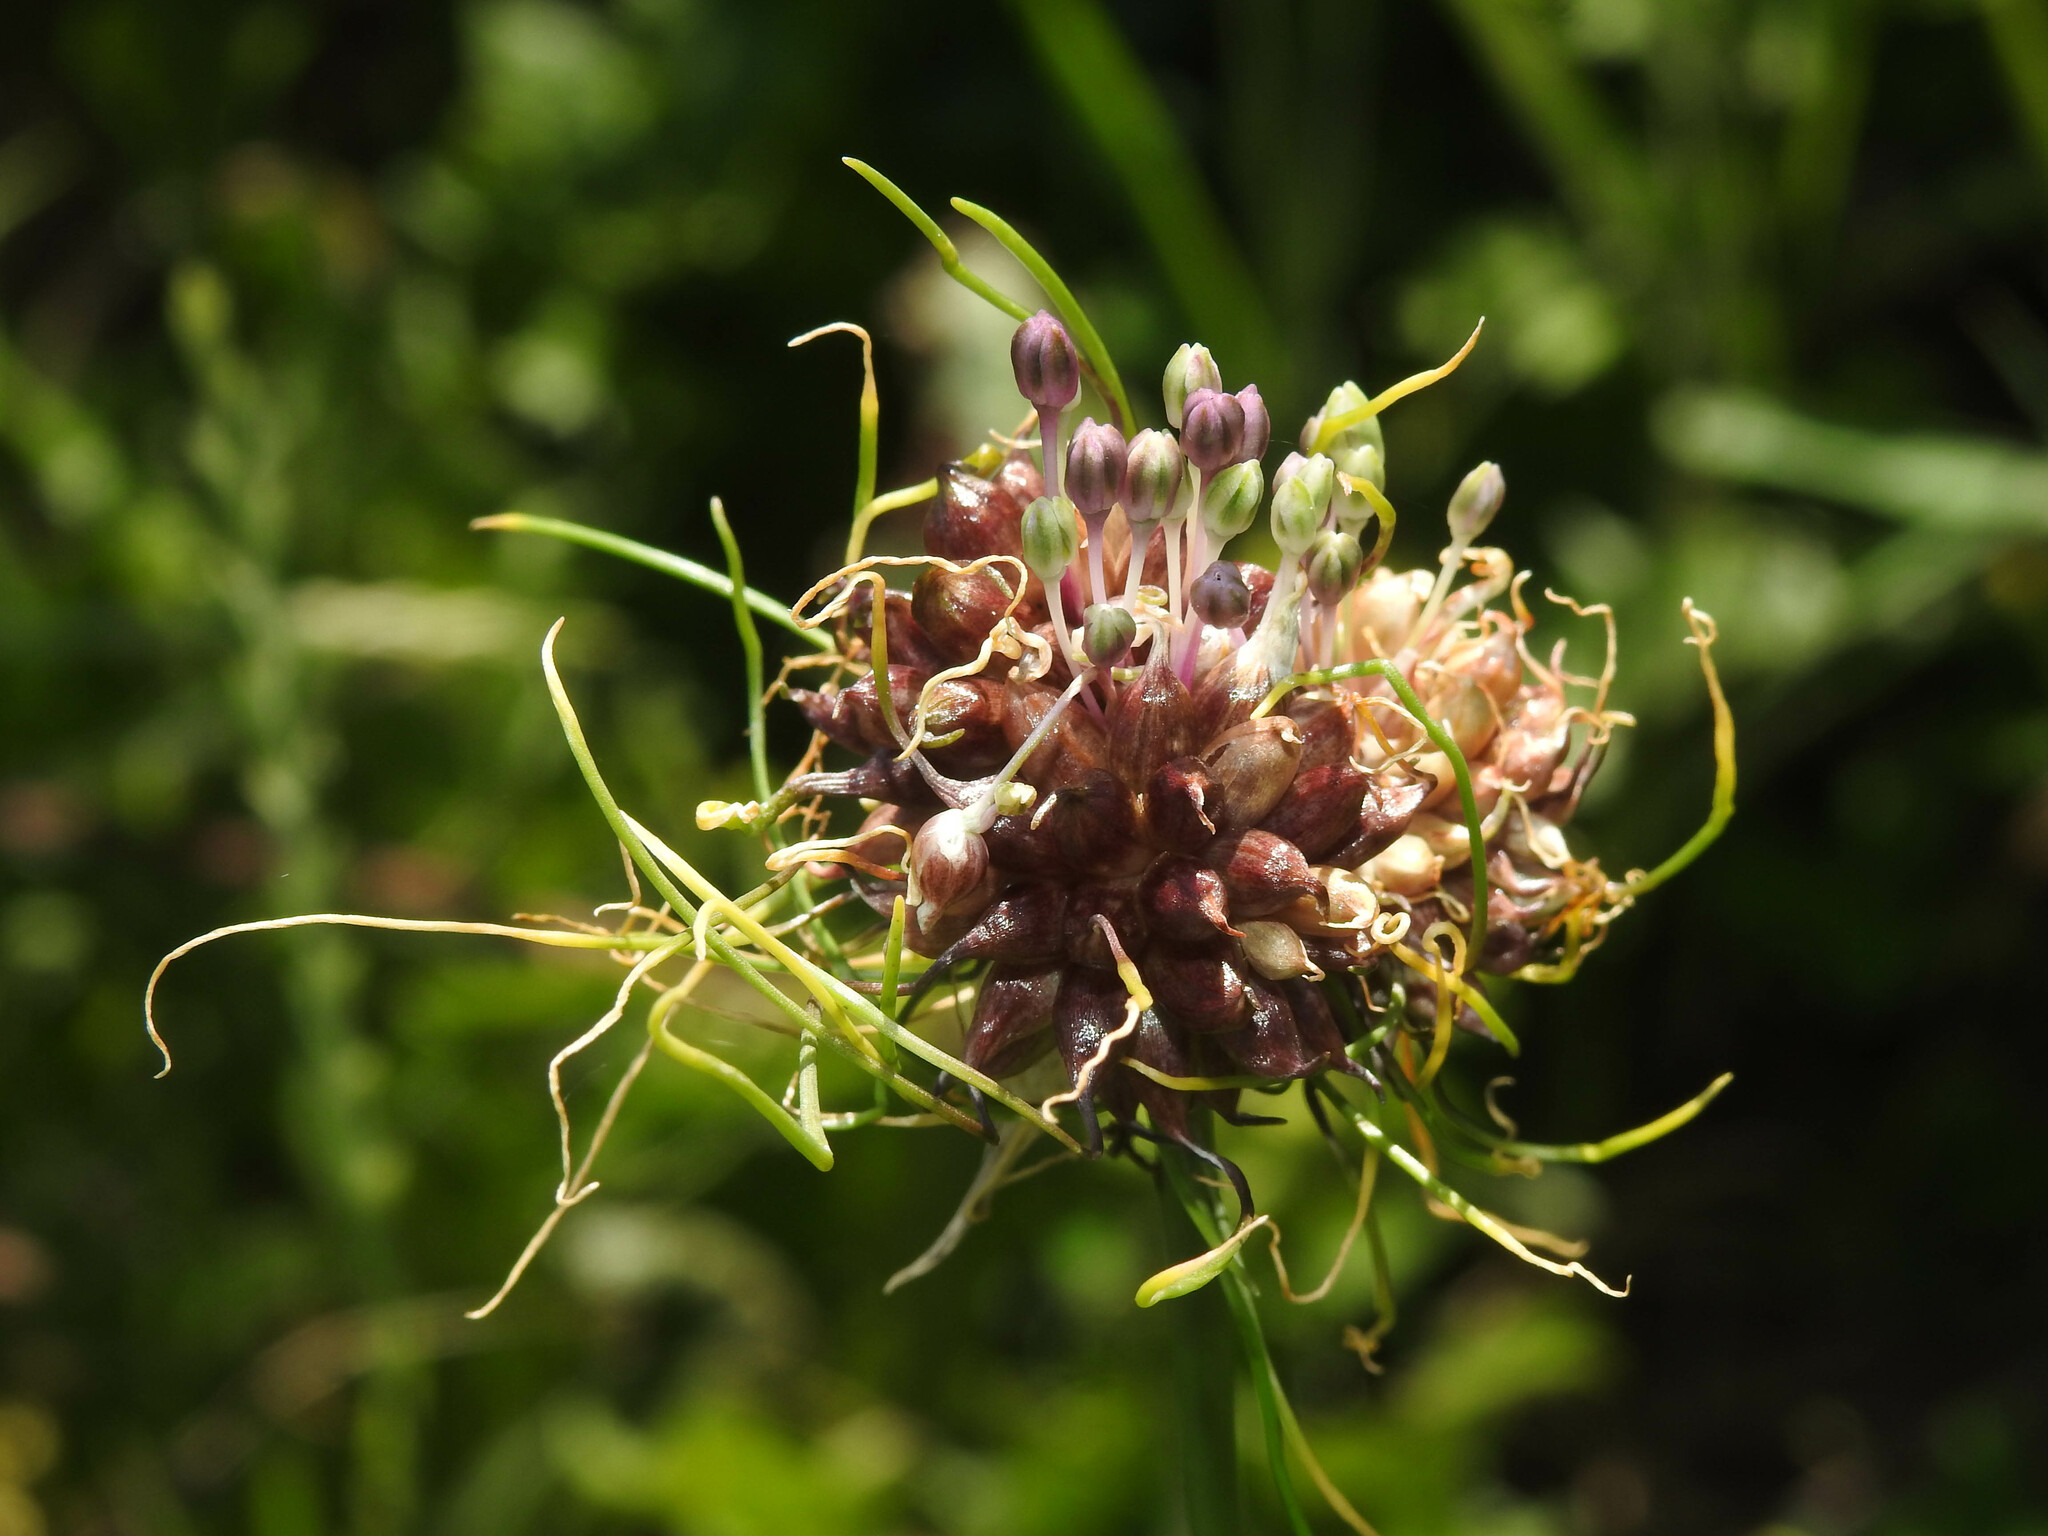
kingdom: Plantae
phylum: Tracheophyta
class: Liliopsida
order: Asparagales
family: Amaryllidaceae
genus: Allium
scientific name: Allium vineale
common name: Crow garlic
